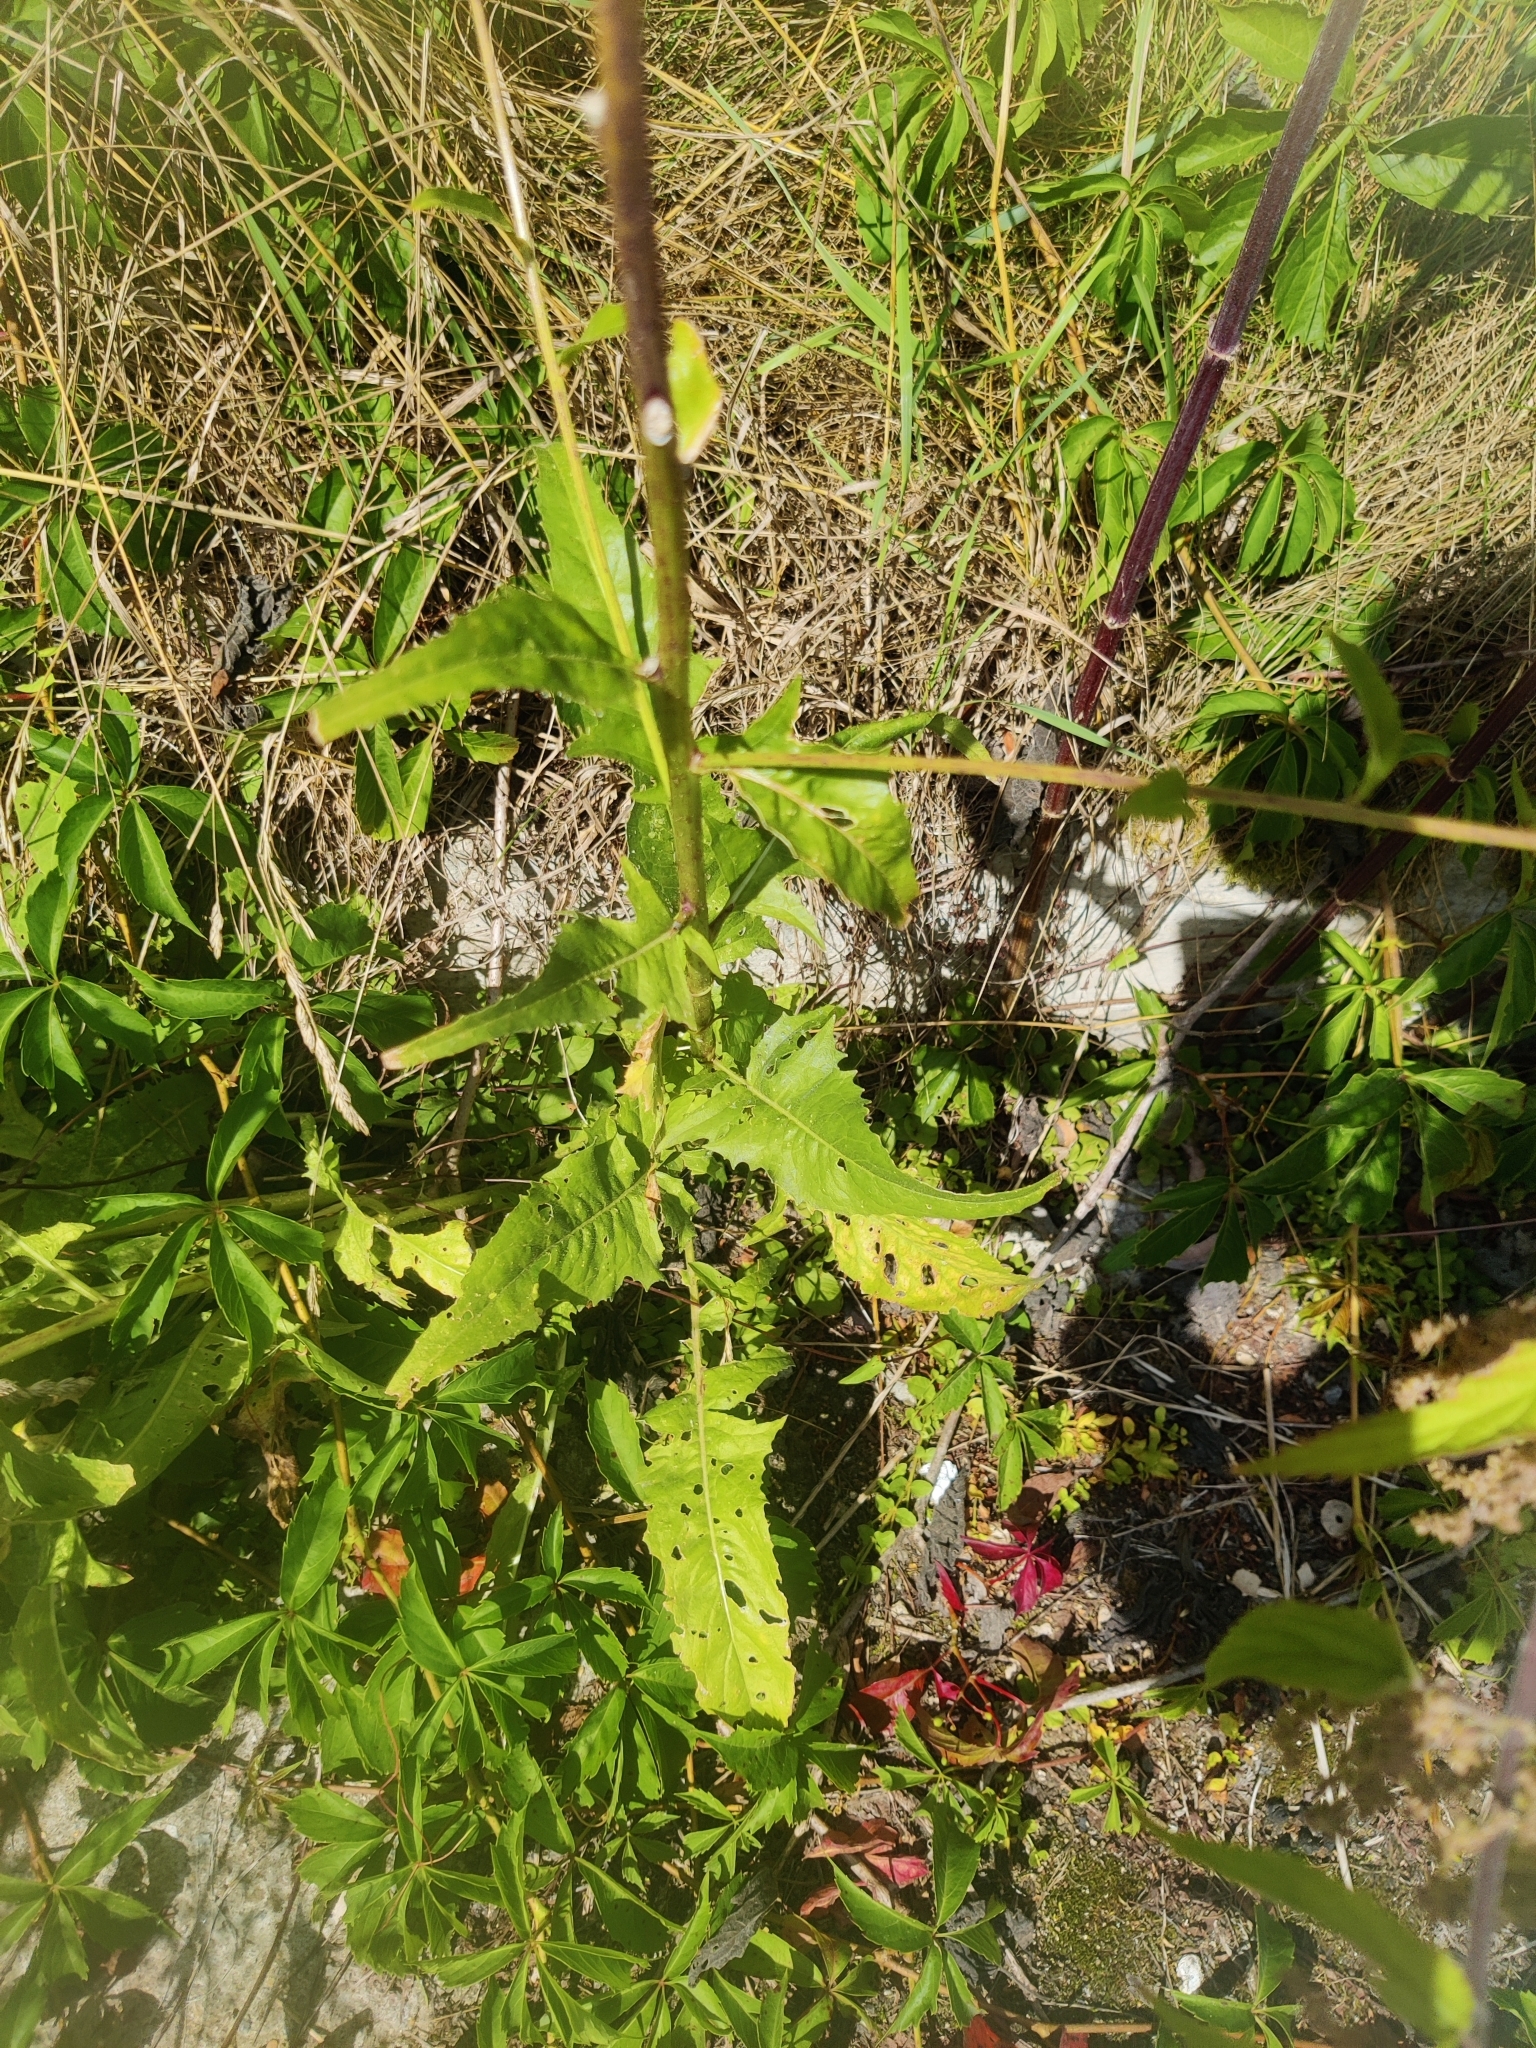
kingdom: Plantae
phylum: Tracheophyta
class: Magnoliopsida
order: Brassicales
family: Brassicaceae
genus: Bunias
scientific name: Bunias orientalis
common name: Warty-cabbage
